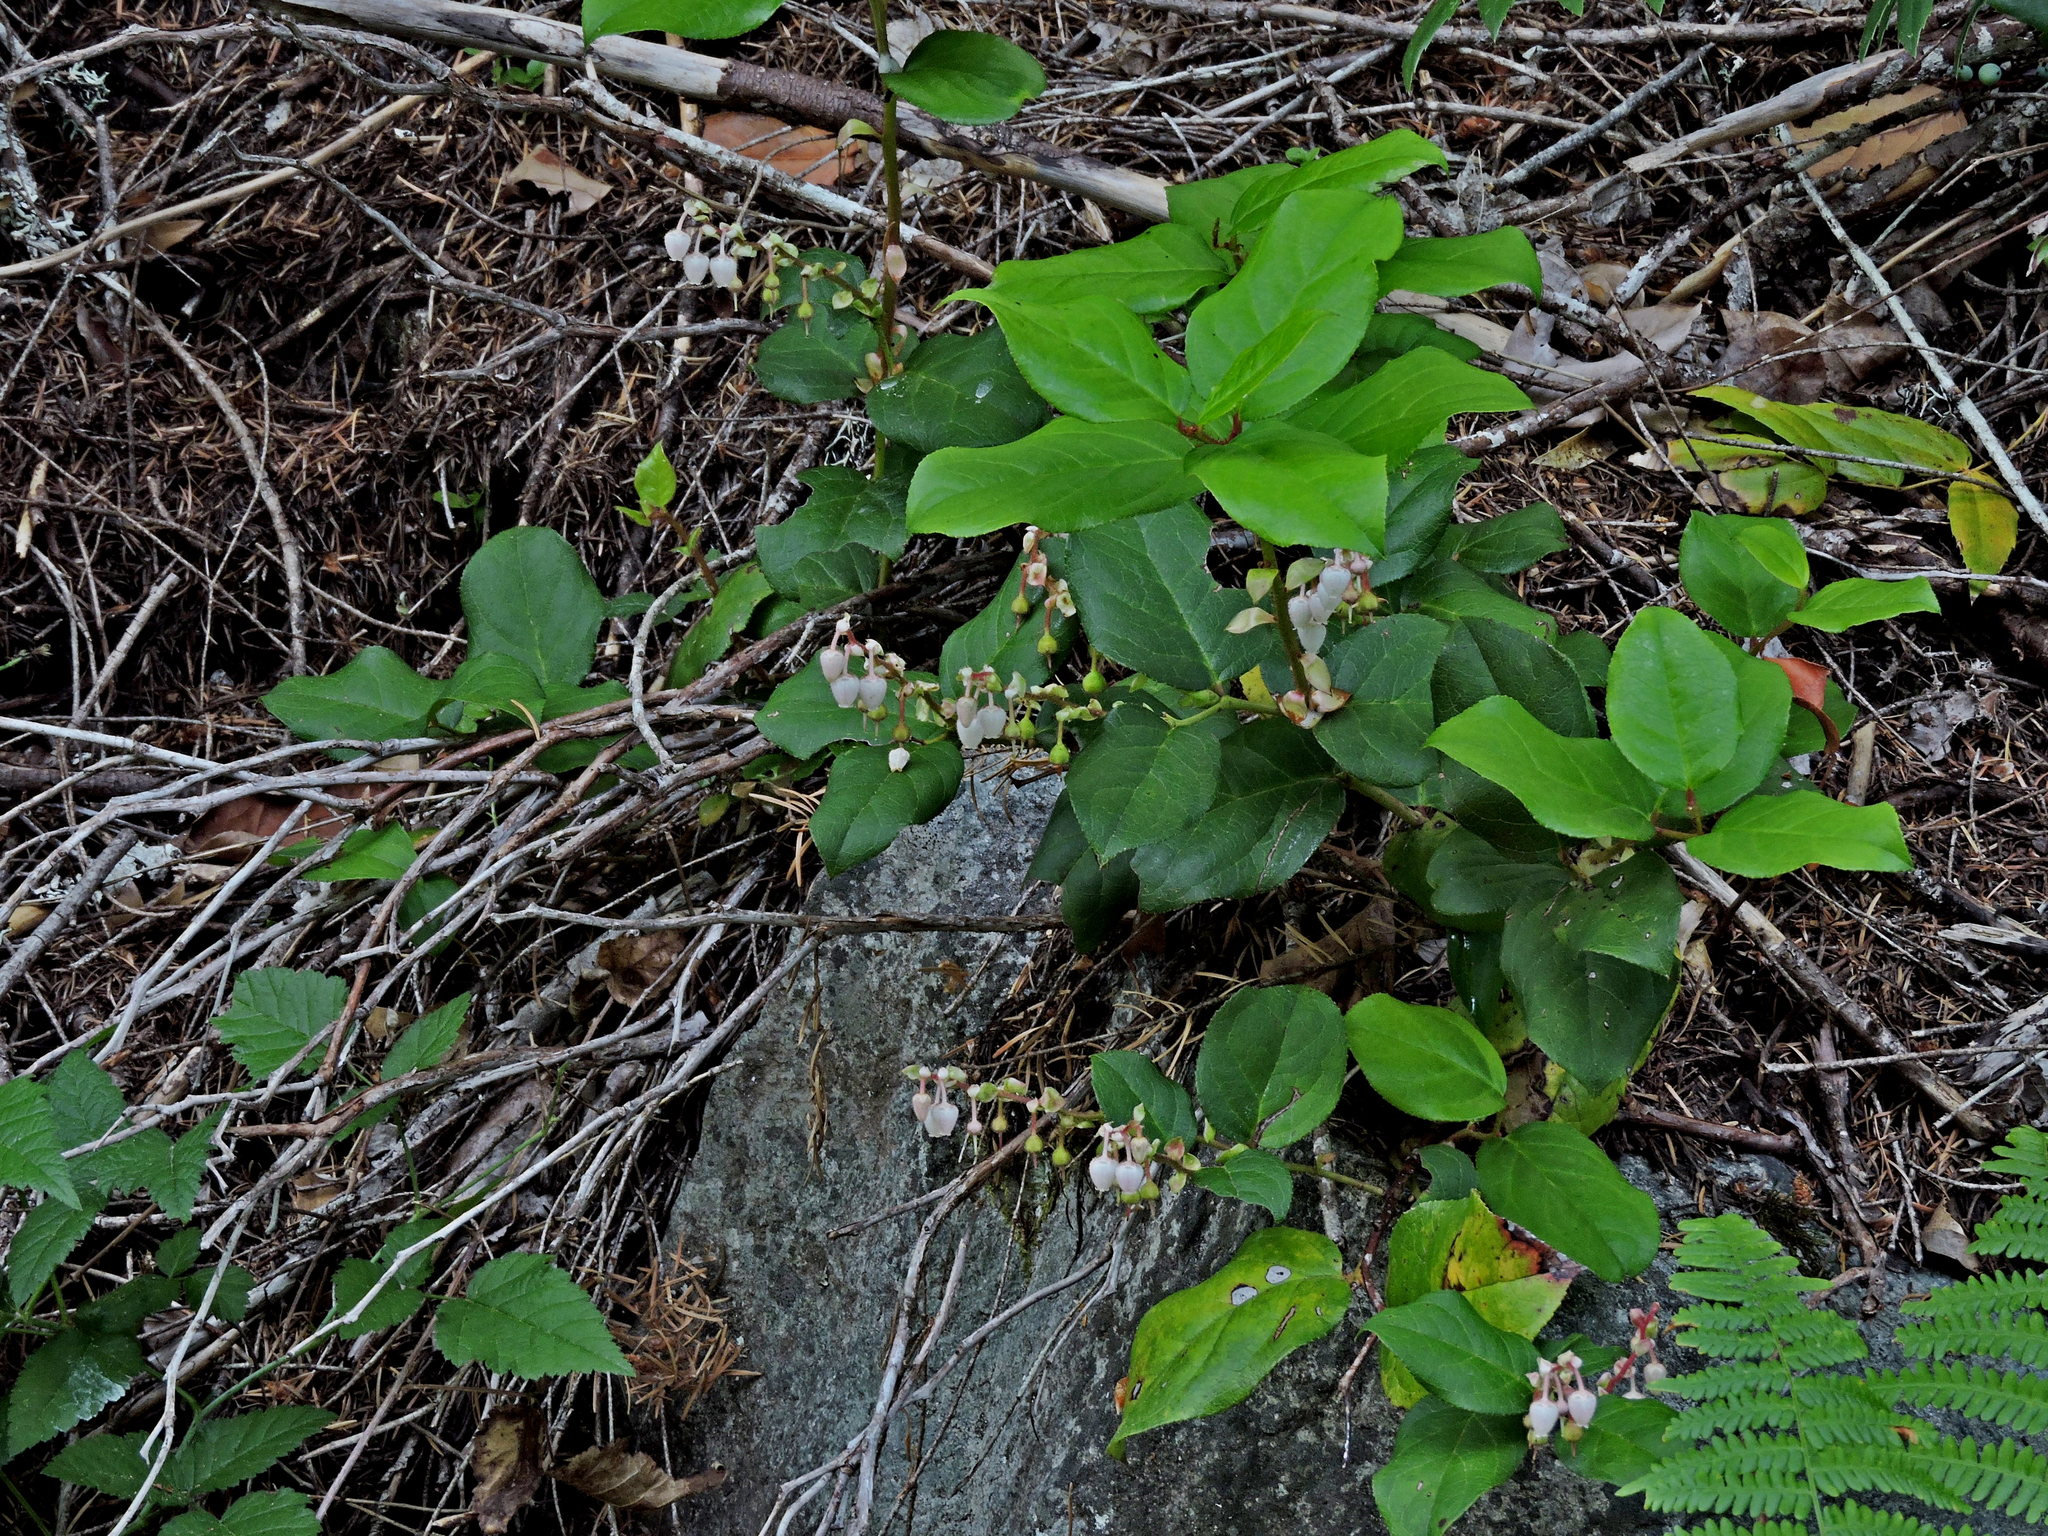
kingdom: Plantae
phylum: Tracheophyta
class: Magnoliopsida
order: Ericales
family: Ericaceae
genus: Gaultheria
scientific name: Gaultheria shallon
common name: Shallon
